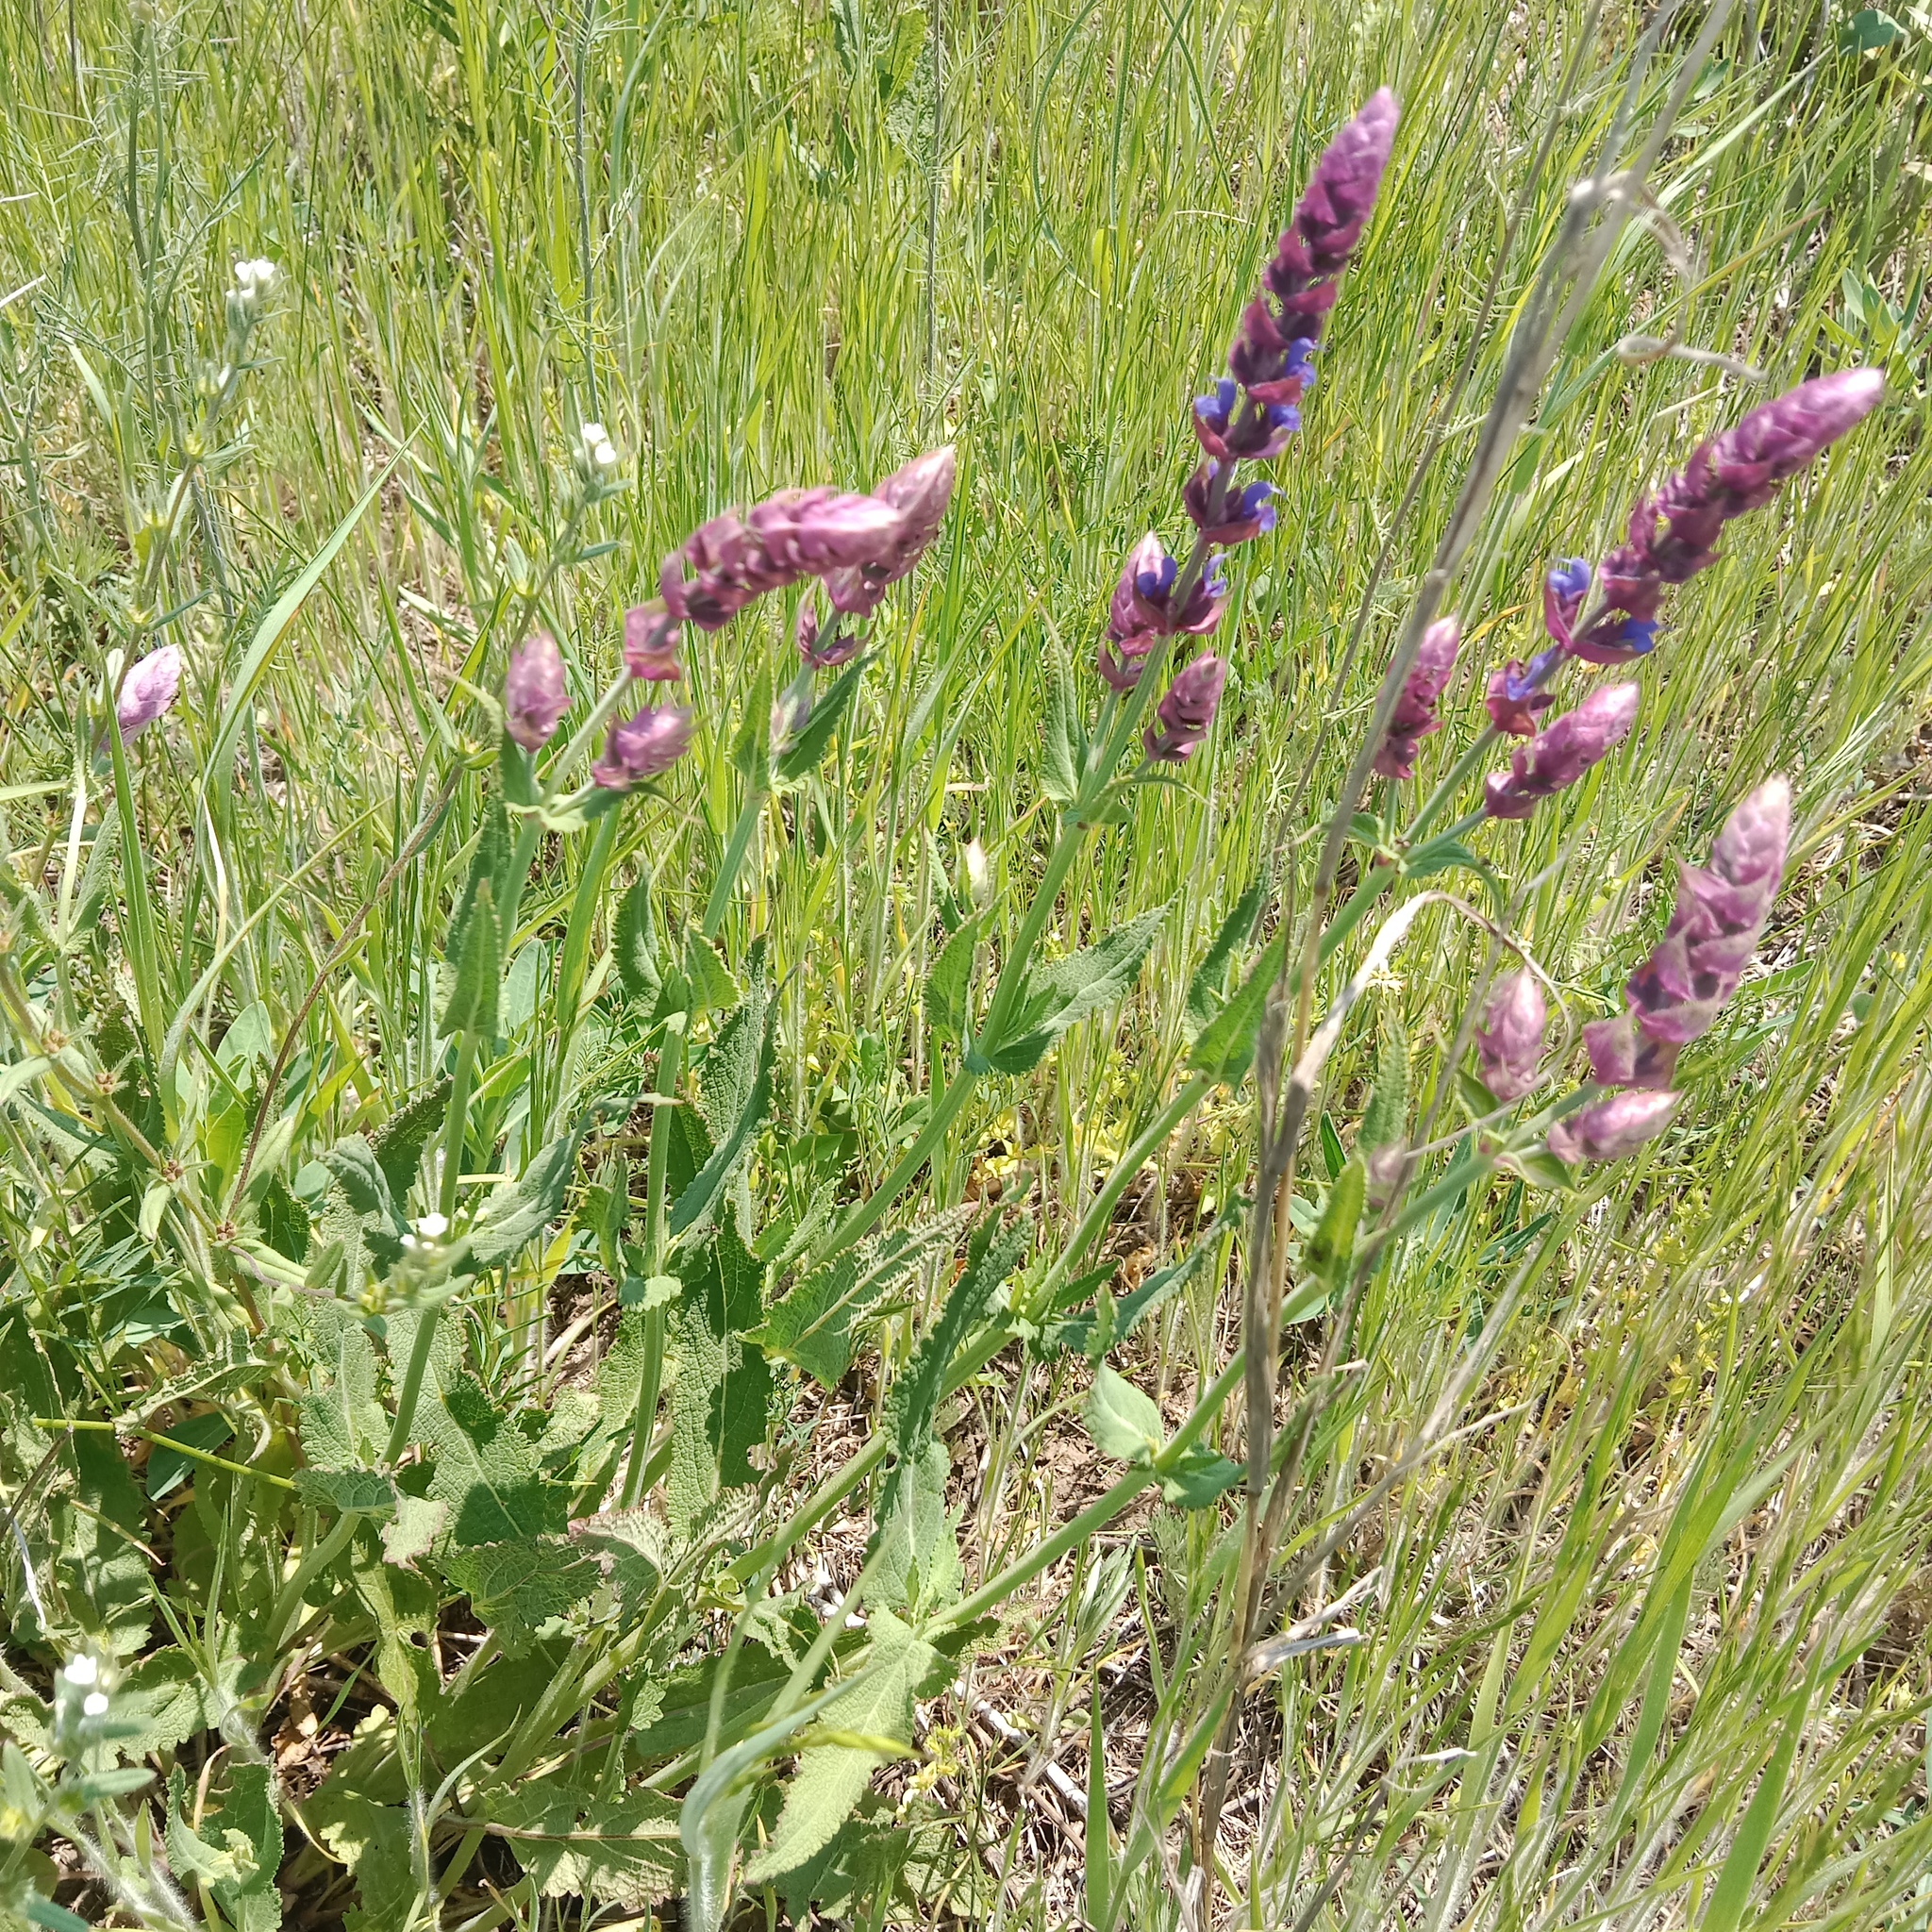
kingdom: Plantae
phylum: Tracheophyta
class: Magnoliopsida
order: Lamiales
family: Lamiaceae
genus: Salvia
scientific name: Salvia nemorosa
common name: Balkan clary
